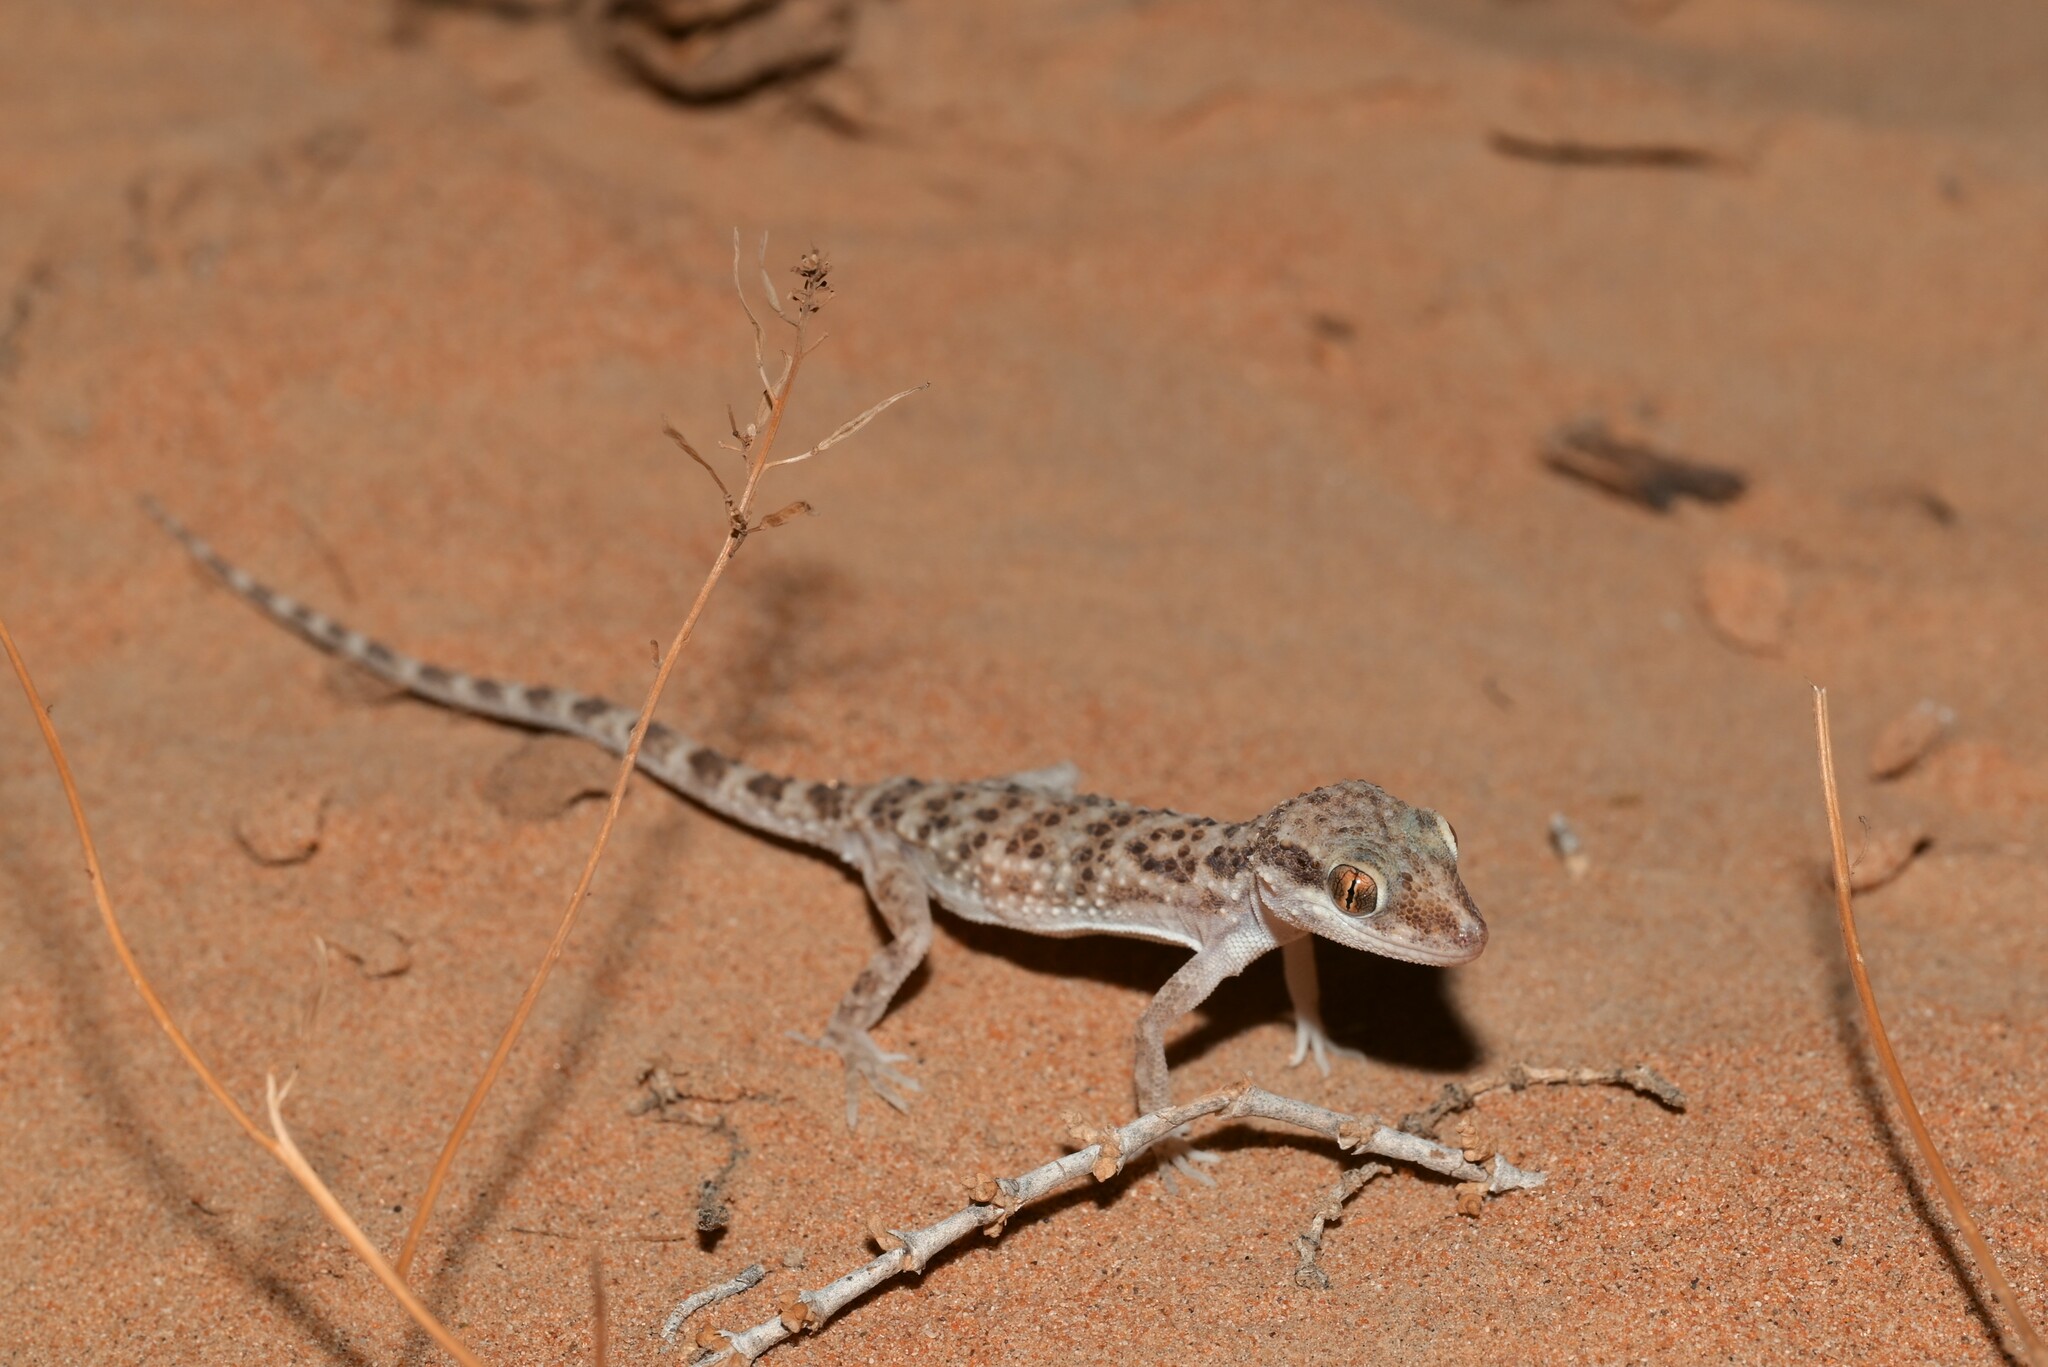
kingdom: Animalia
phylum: Chordata
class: Squamata
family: Gekkonidae
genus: Bunopus
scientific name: Bunopus tuberculatus
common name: Southern tuberculated gecko
